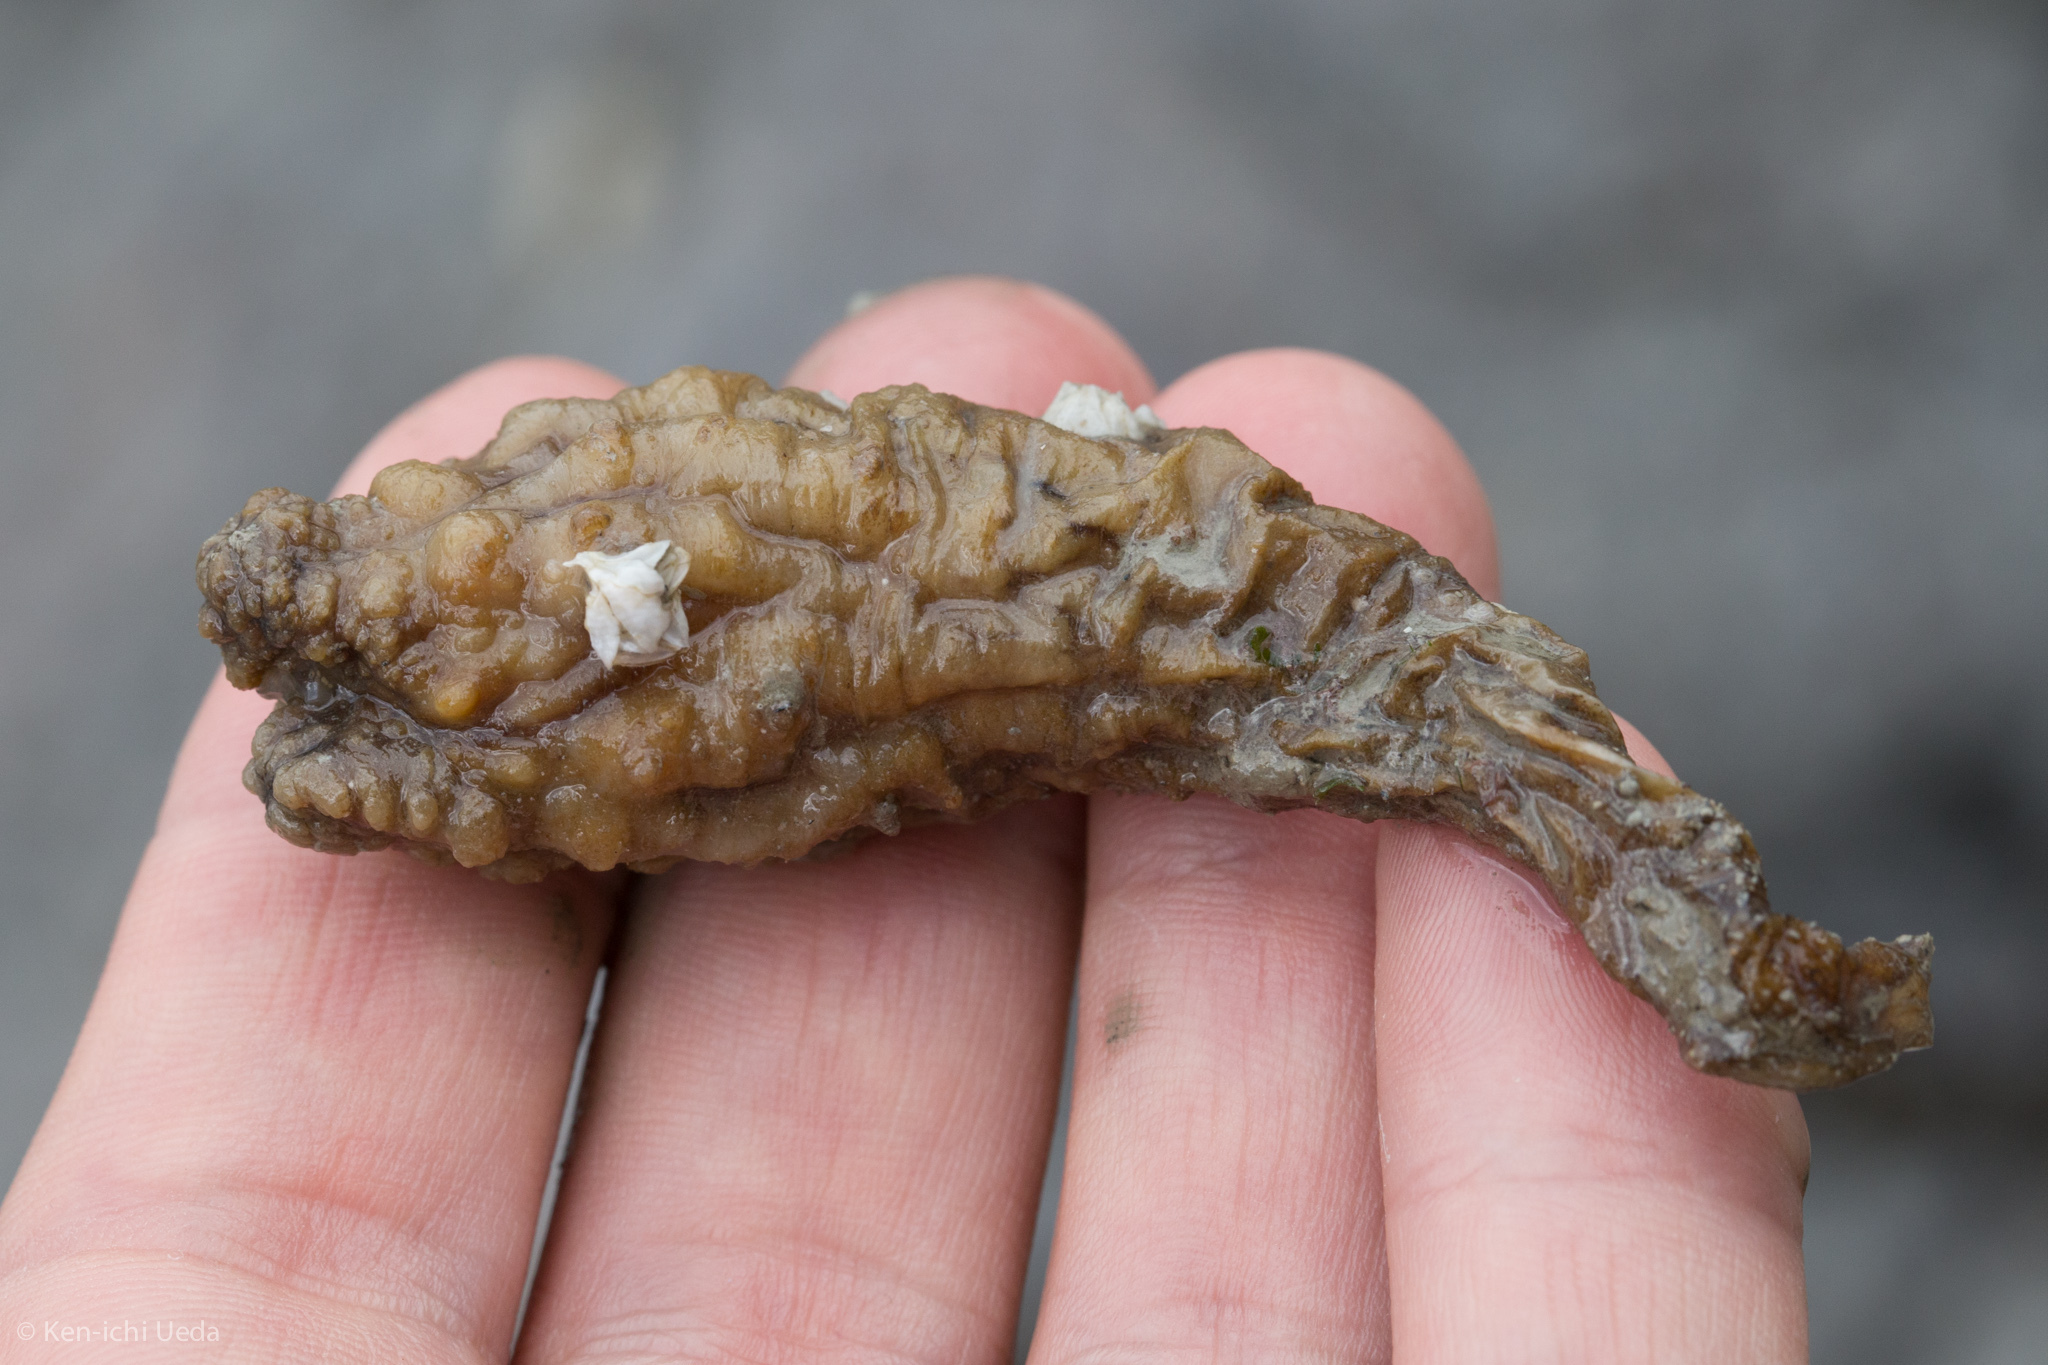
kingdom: Animalia
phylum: Chordata
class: Ascidiacea
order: Stolidobranchia
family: Styelidae
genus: Styela
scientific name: Styela clava
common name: Leathery sea squirt
